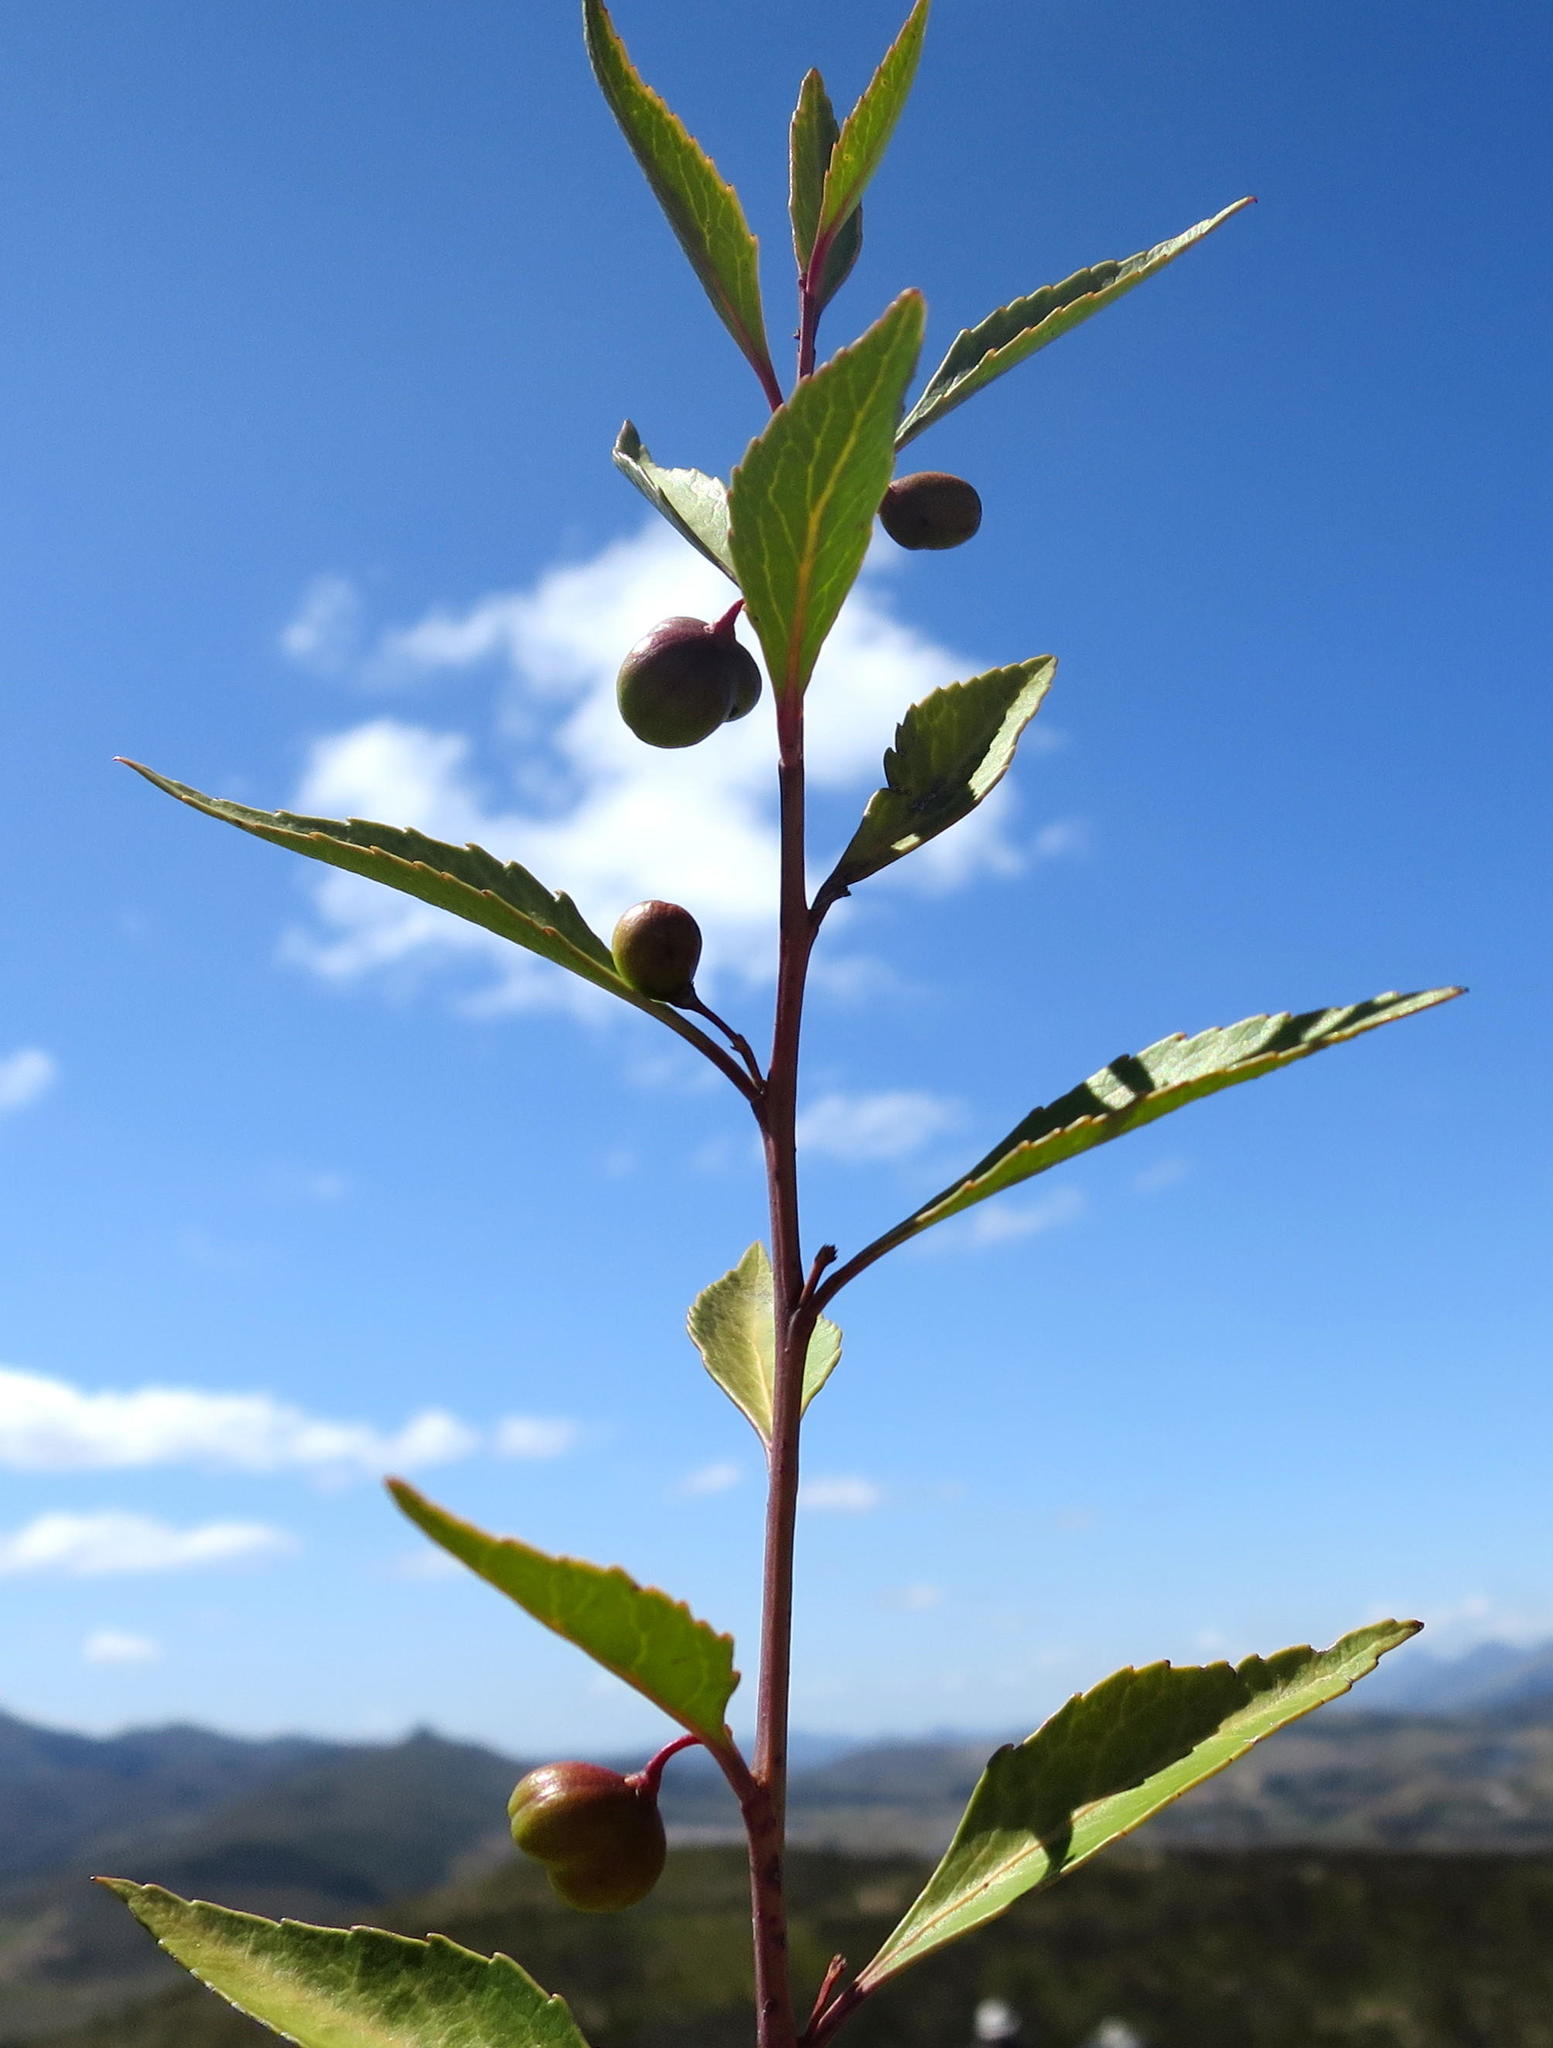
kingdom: Plantae
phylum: Tracheophyta
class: Magnoliopsida
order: Celastrales
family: Celastraceae
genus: Gymnosporia
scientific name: Gymnosporia acuminata
